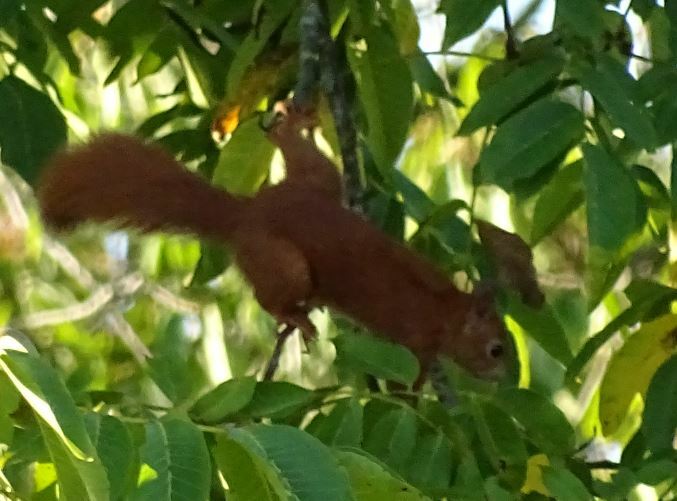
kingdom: Animalia
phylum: Chordata
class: Mammalia
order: Rodentia
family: Sciuridae
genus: Sciurus
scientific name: Sciurus vulgaris
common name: Eurasian red squirrel
